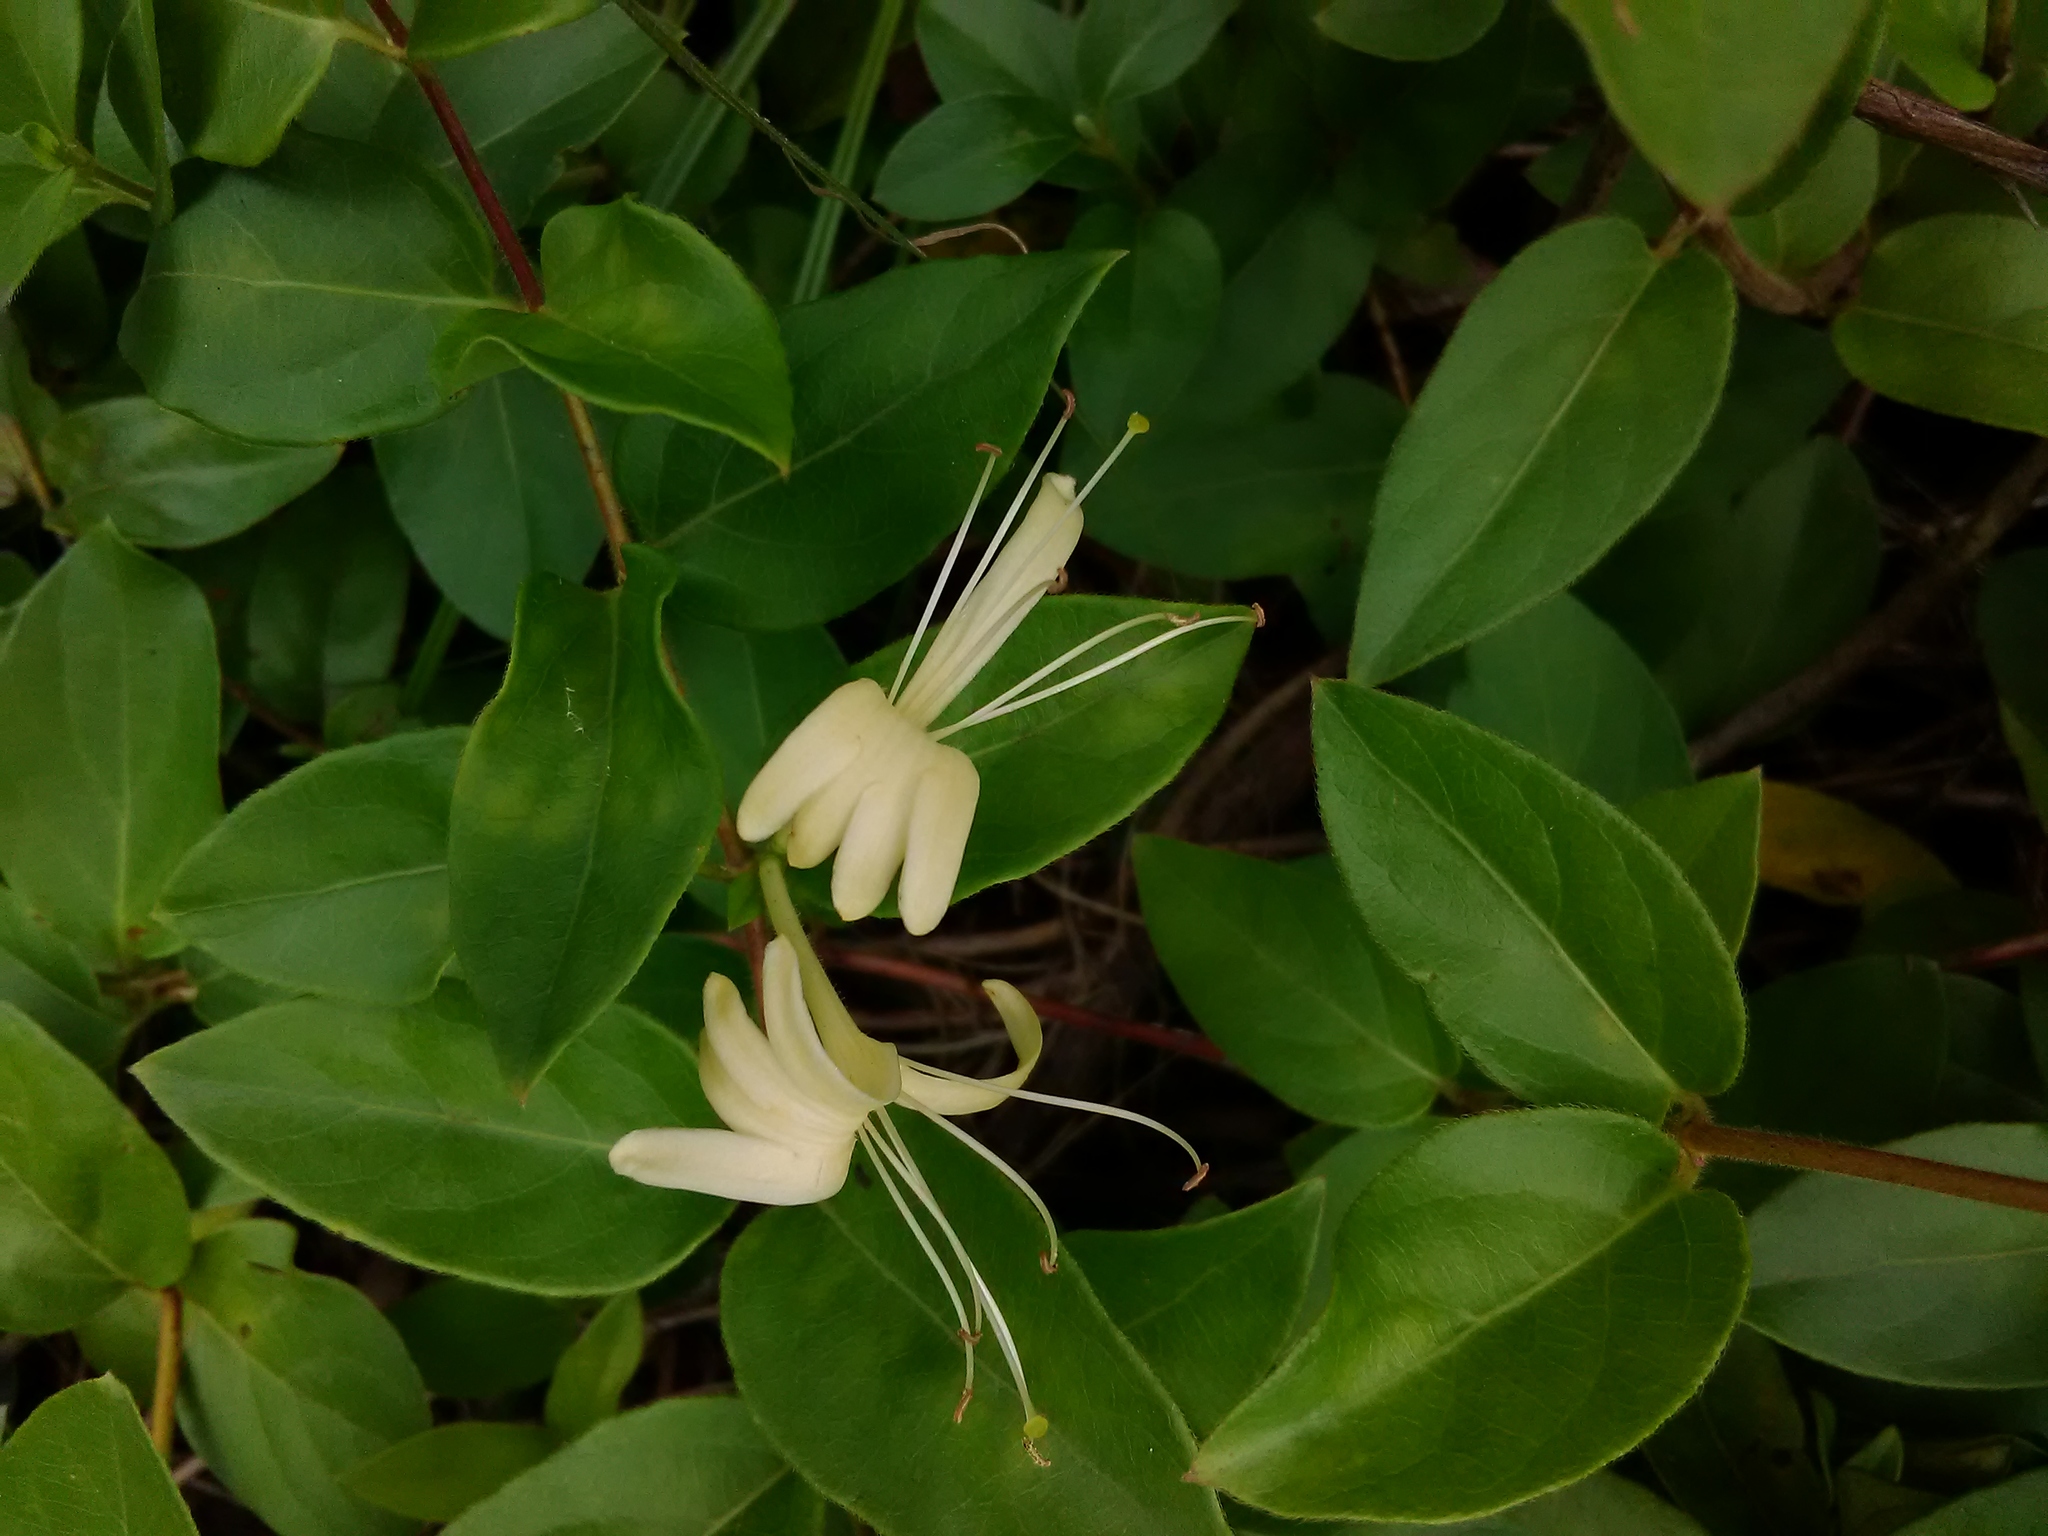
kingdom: Plantae
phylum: Tracheophyta
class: Magnoliopsida
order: Dipsacales
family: Caprifoliaceae
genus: Lonicera
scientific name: Lonicera japonica
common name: Japanese honeysuckle
